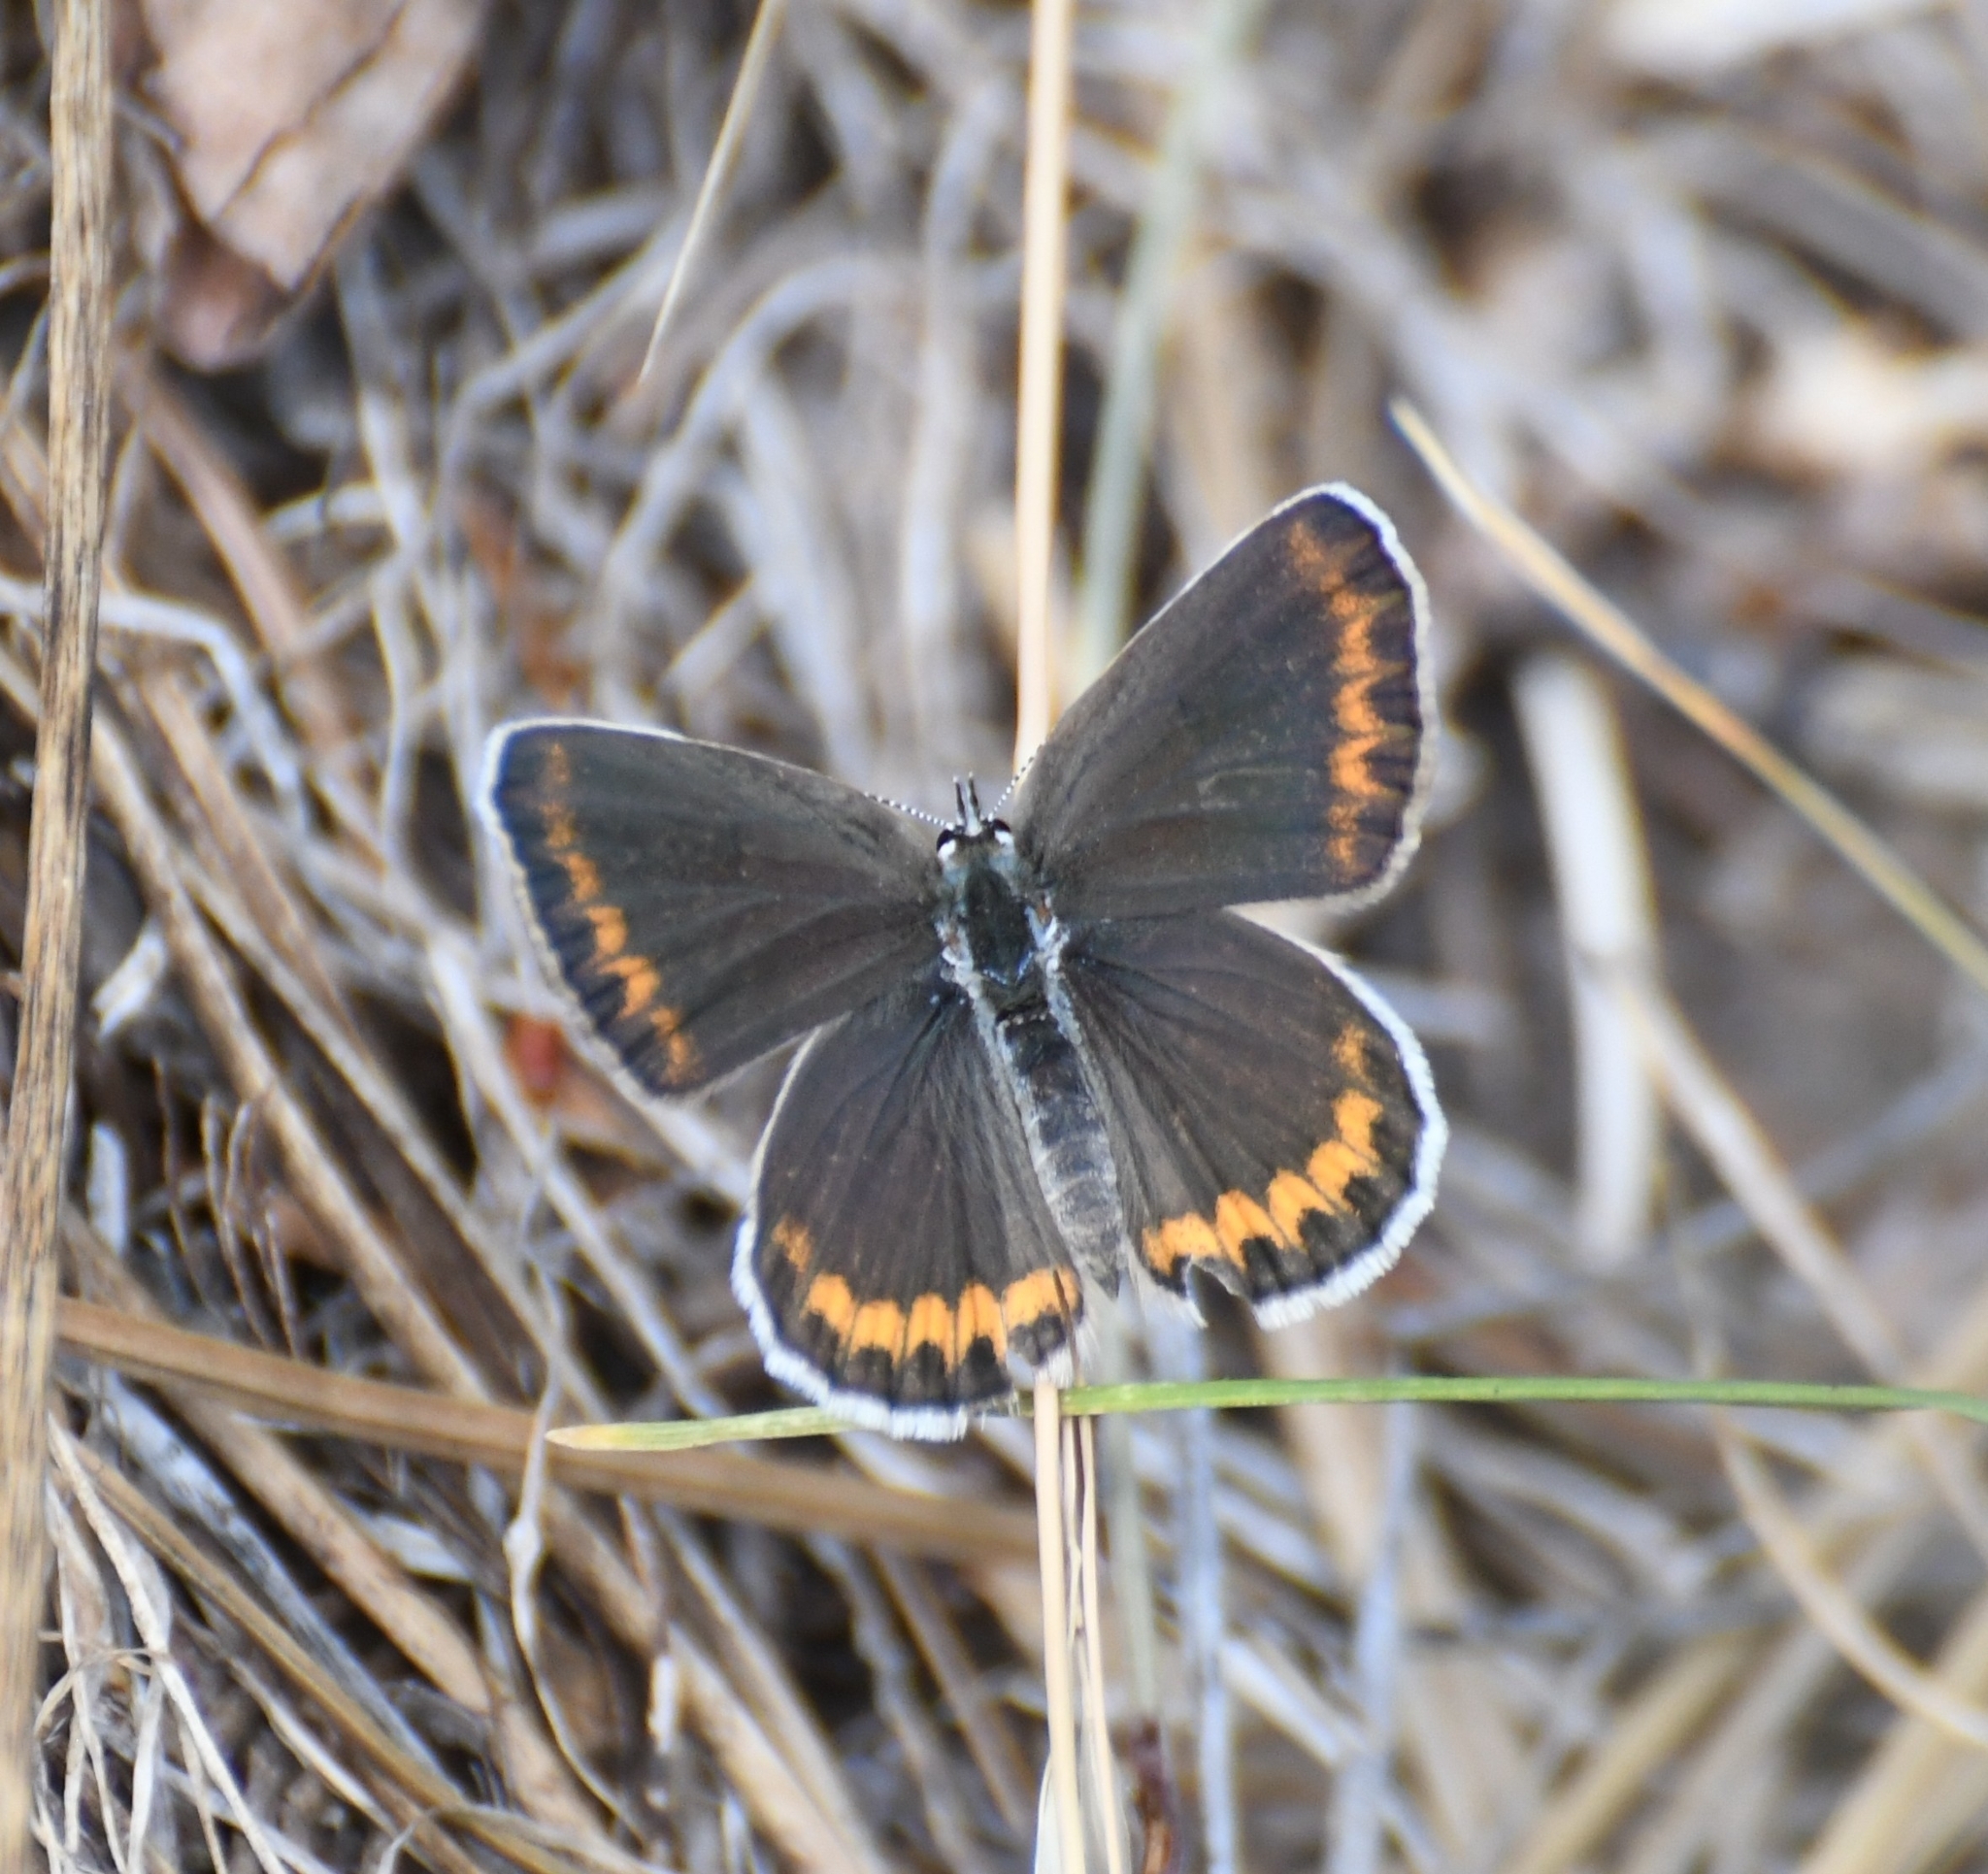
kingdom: Animalia
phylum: Arthropoda
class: Insecta
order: Lepidoptera
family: Lycaenidae
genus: Lycaeides
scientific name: Lycaeides melissa
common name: Melissa blue
